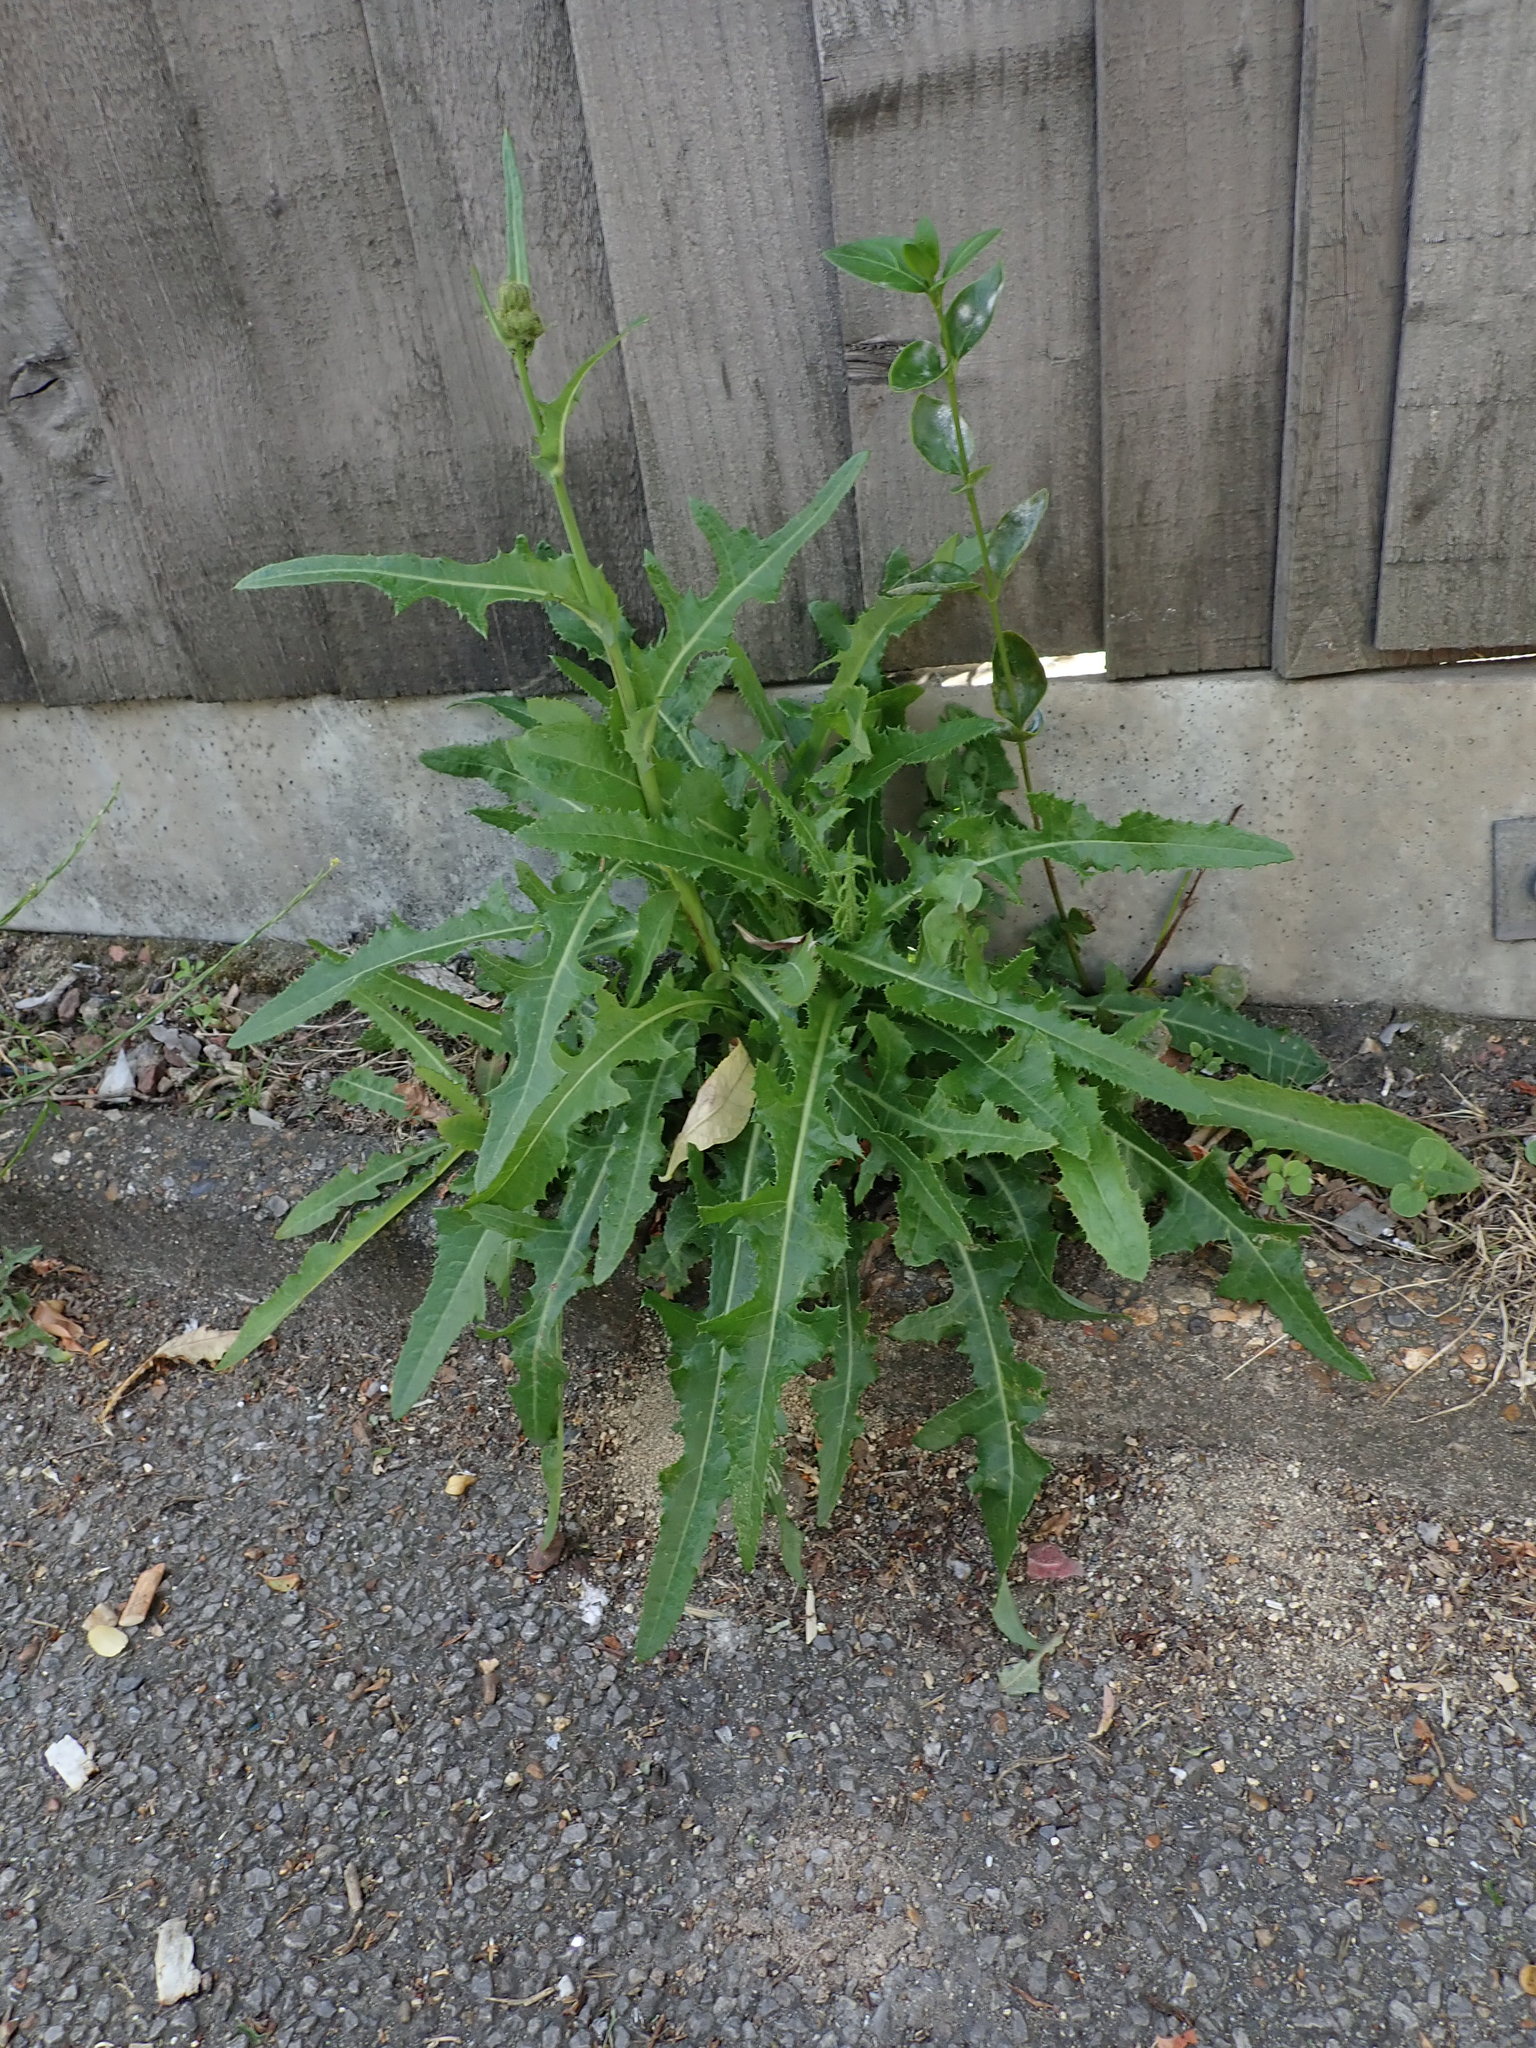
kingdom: Plantae
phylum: Tracheophyta
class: Magnoliopsida
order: Asterales
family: Asteraceae
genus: Sonchus
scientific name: Sonchus arvensis
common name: Perennial sow-thistle
